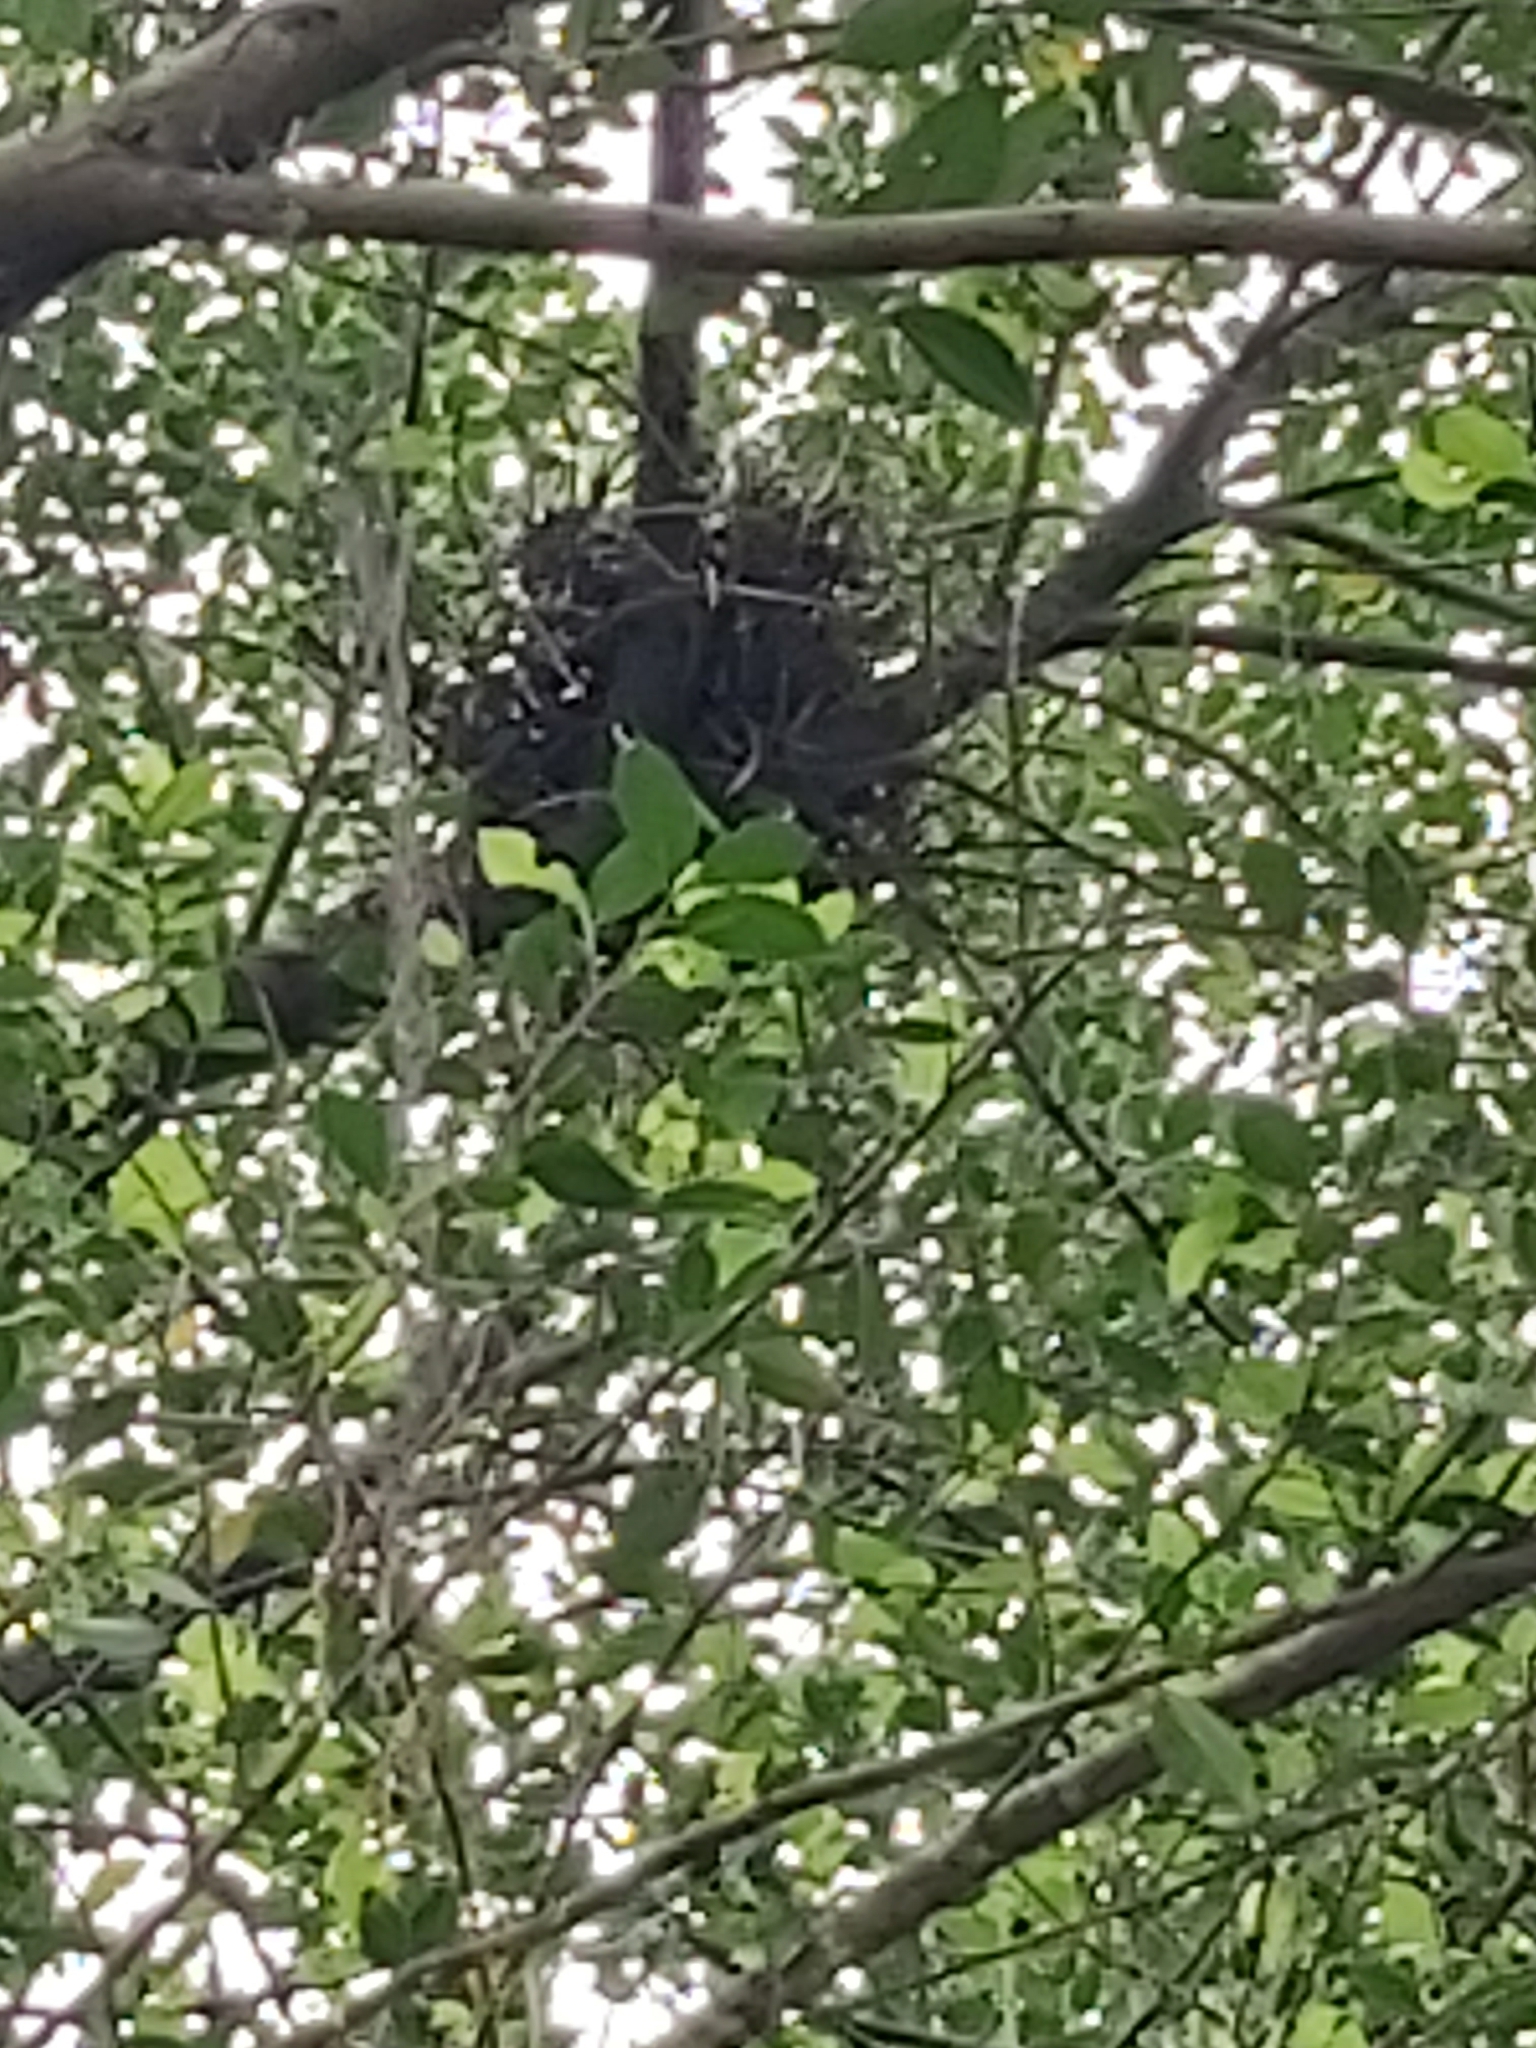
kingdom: Animalia
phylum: Chordata
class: Aves
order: Pelecaniformes
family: Ardeidae
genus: Gorsachius
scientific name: Gorsachius melanolophus
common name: Malayan night heron
